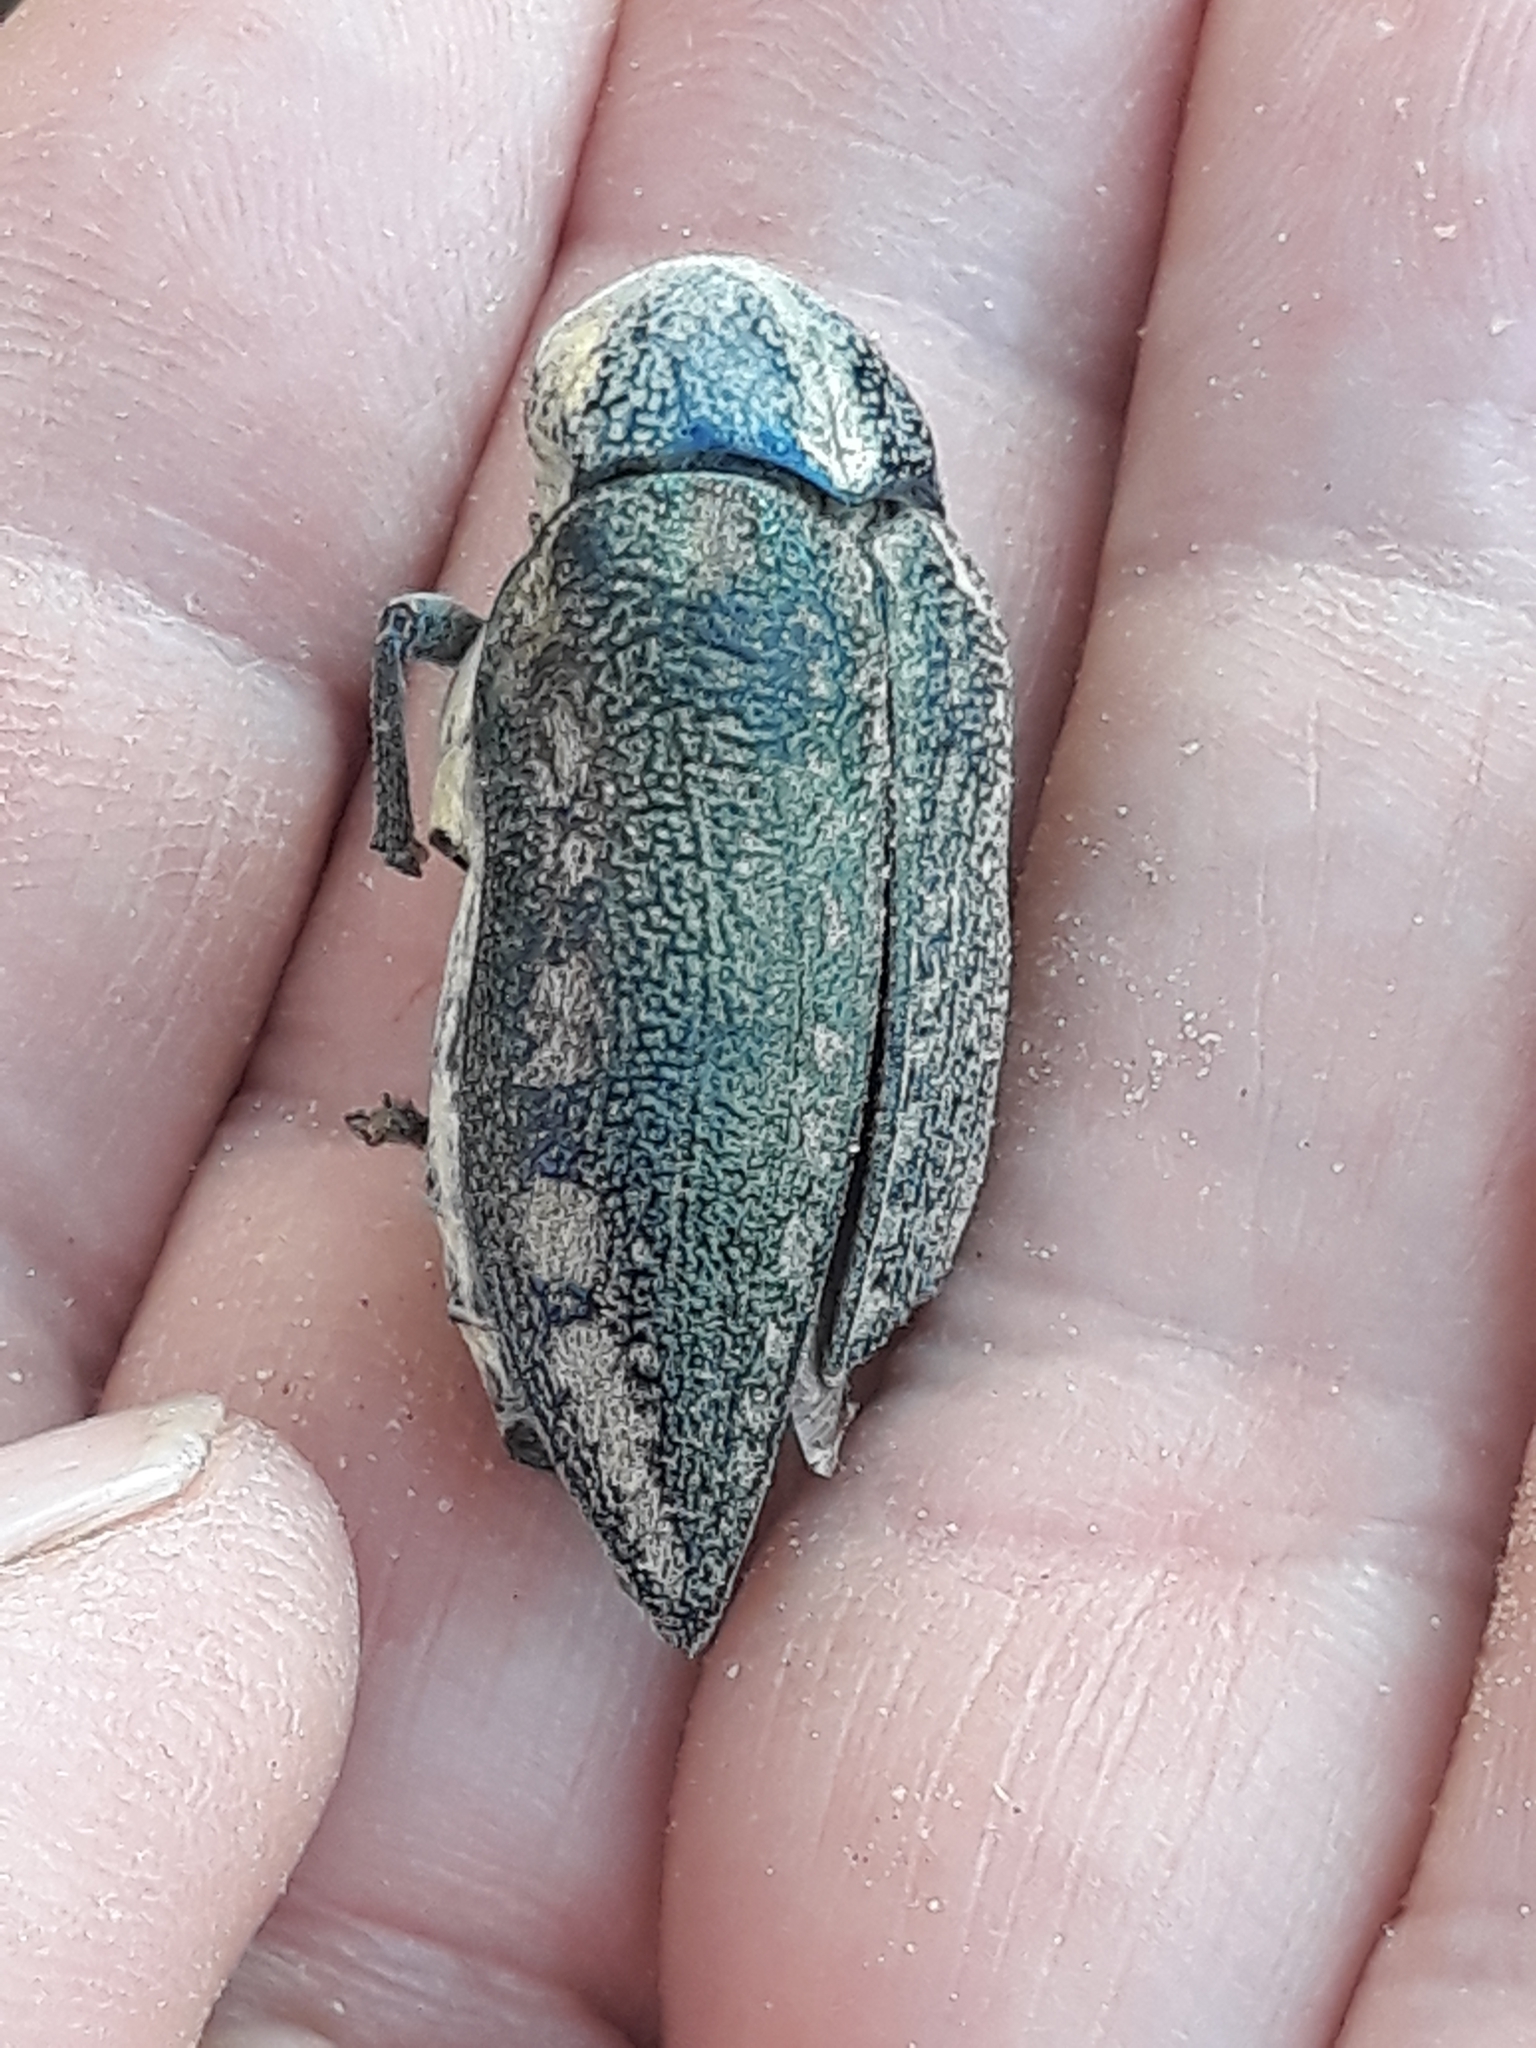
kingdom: Animalia
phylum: Arthropoda
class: Insecta
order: Coleoptera
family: Buprestidae
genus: Julodis
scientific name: Julodis fimbriata
